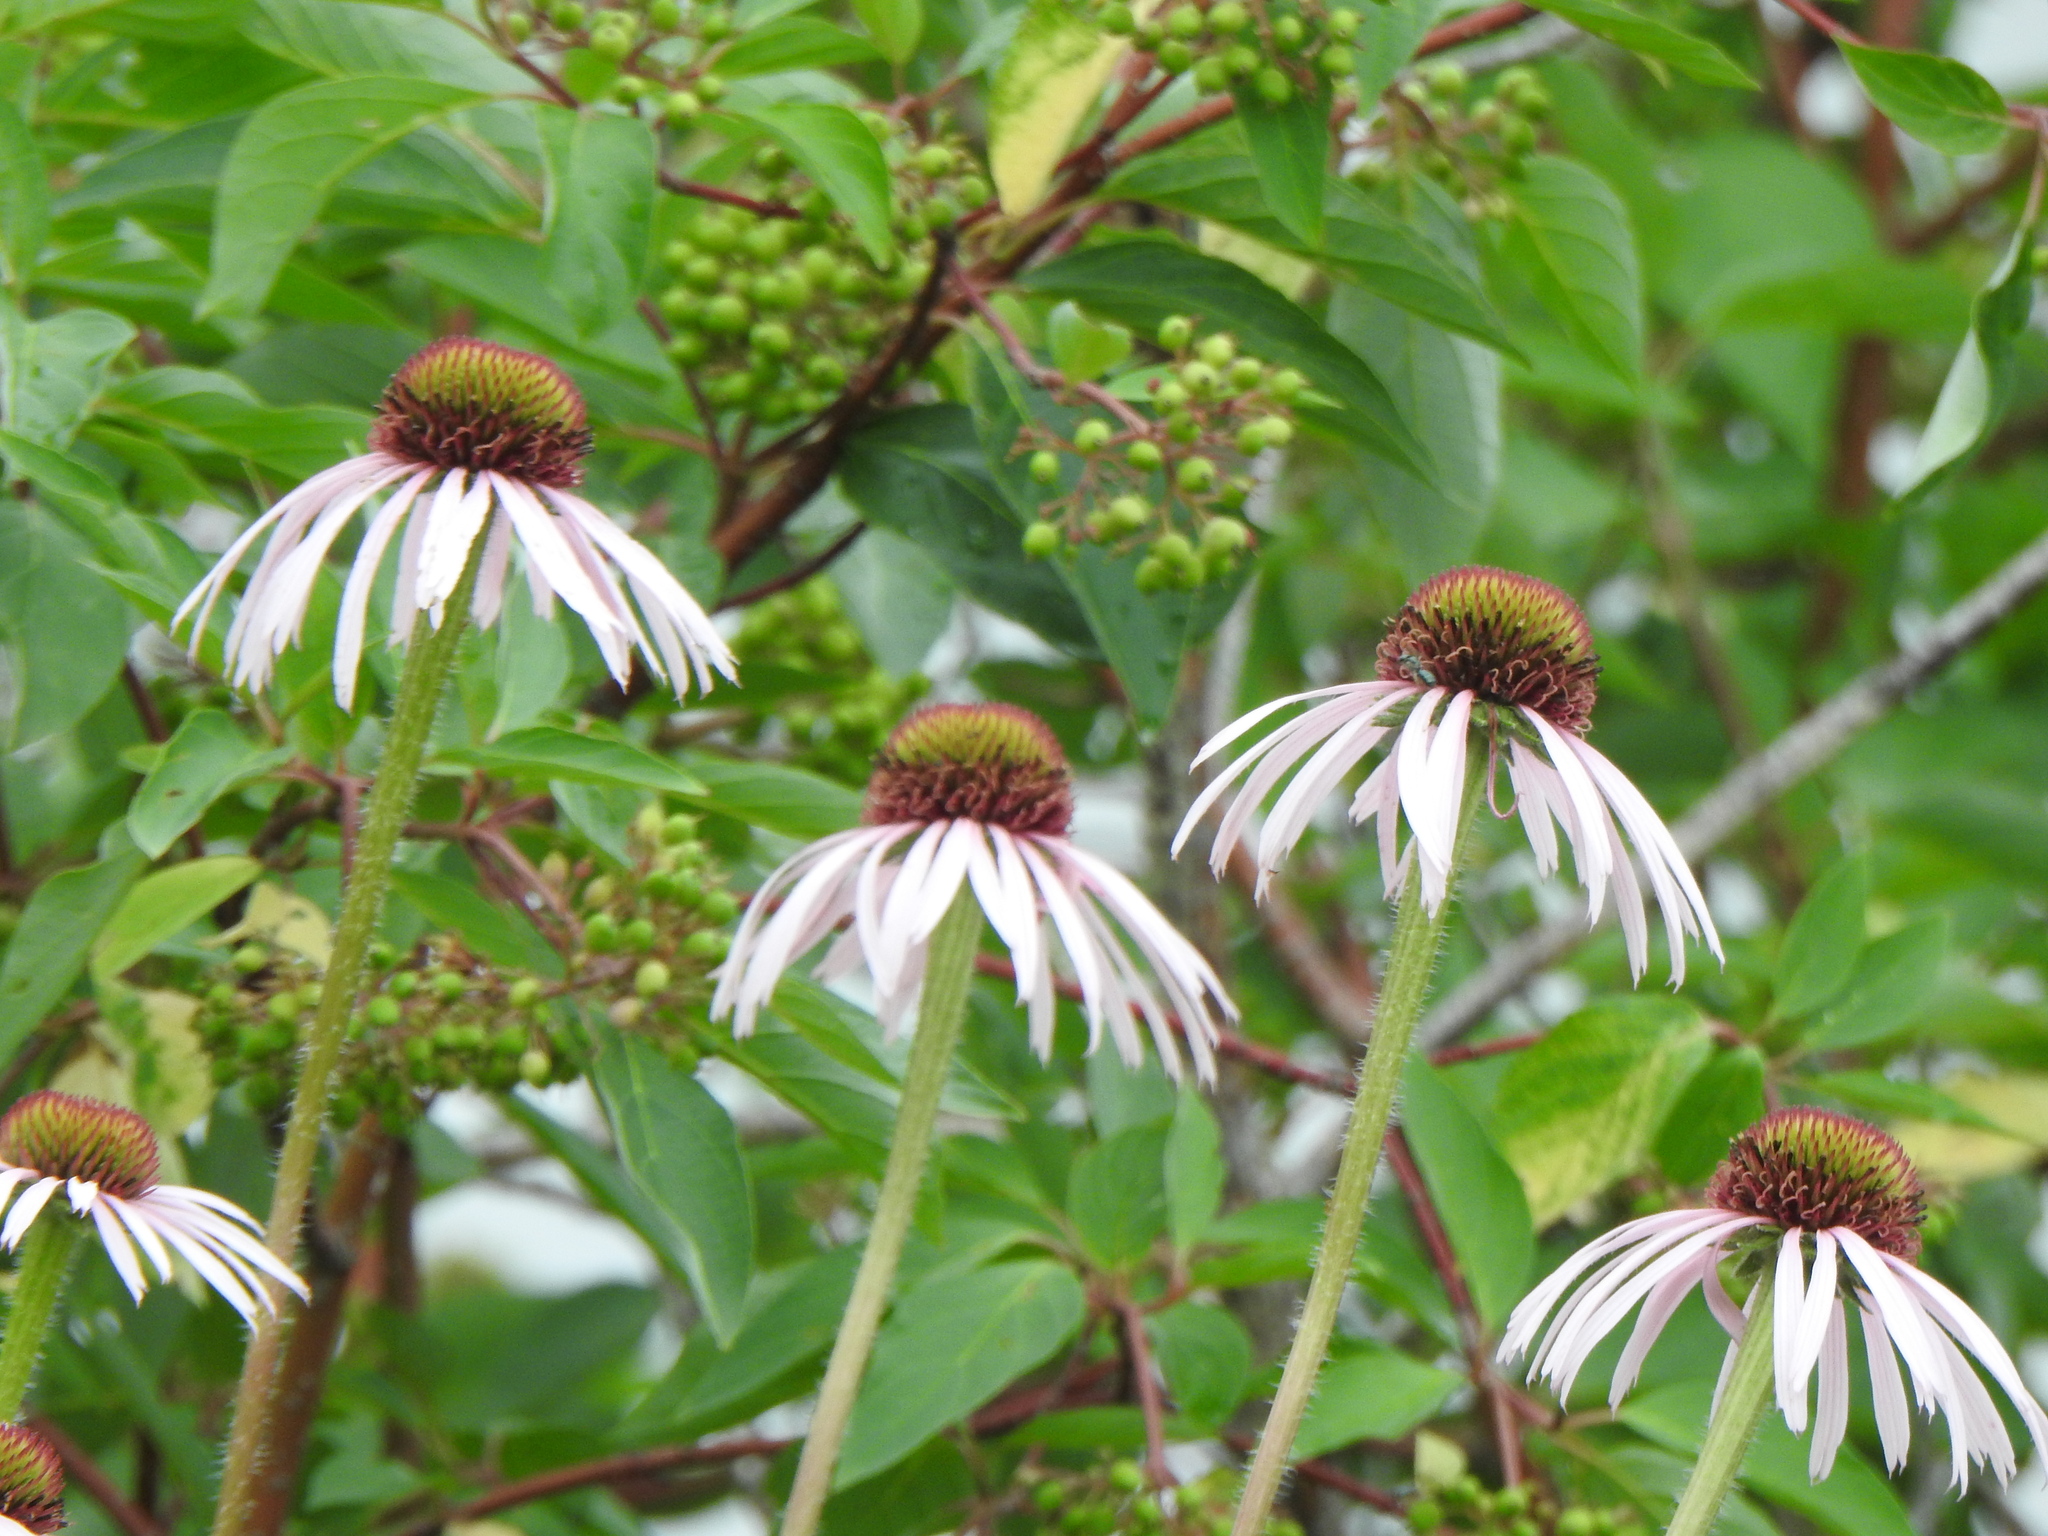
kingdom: Plantae
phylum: Tracheophyta
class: Magnoliopsida
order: Asterales
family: Asteraceae
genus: Echinacea
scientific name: Echinacea pallida
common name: Pale echinacea
